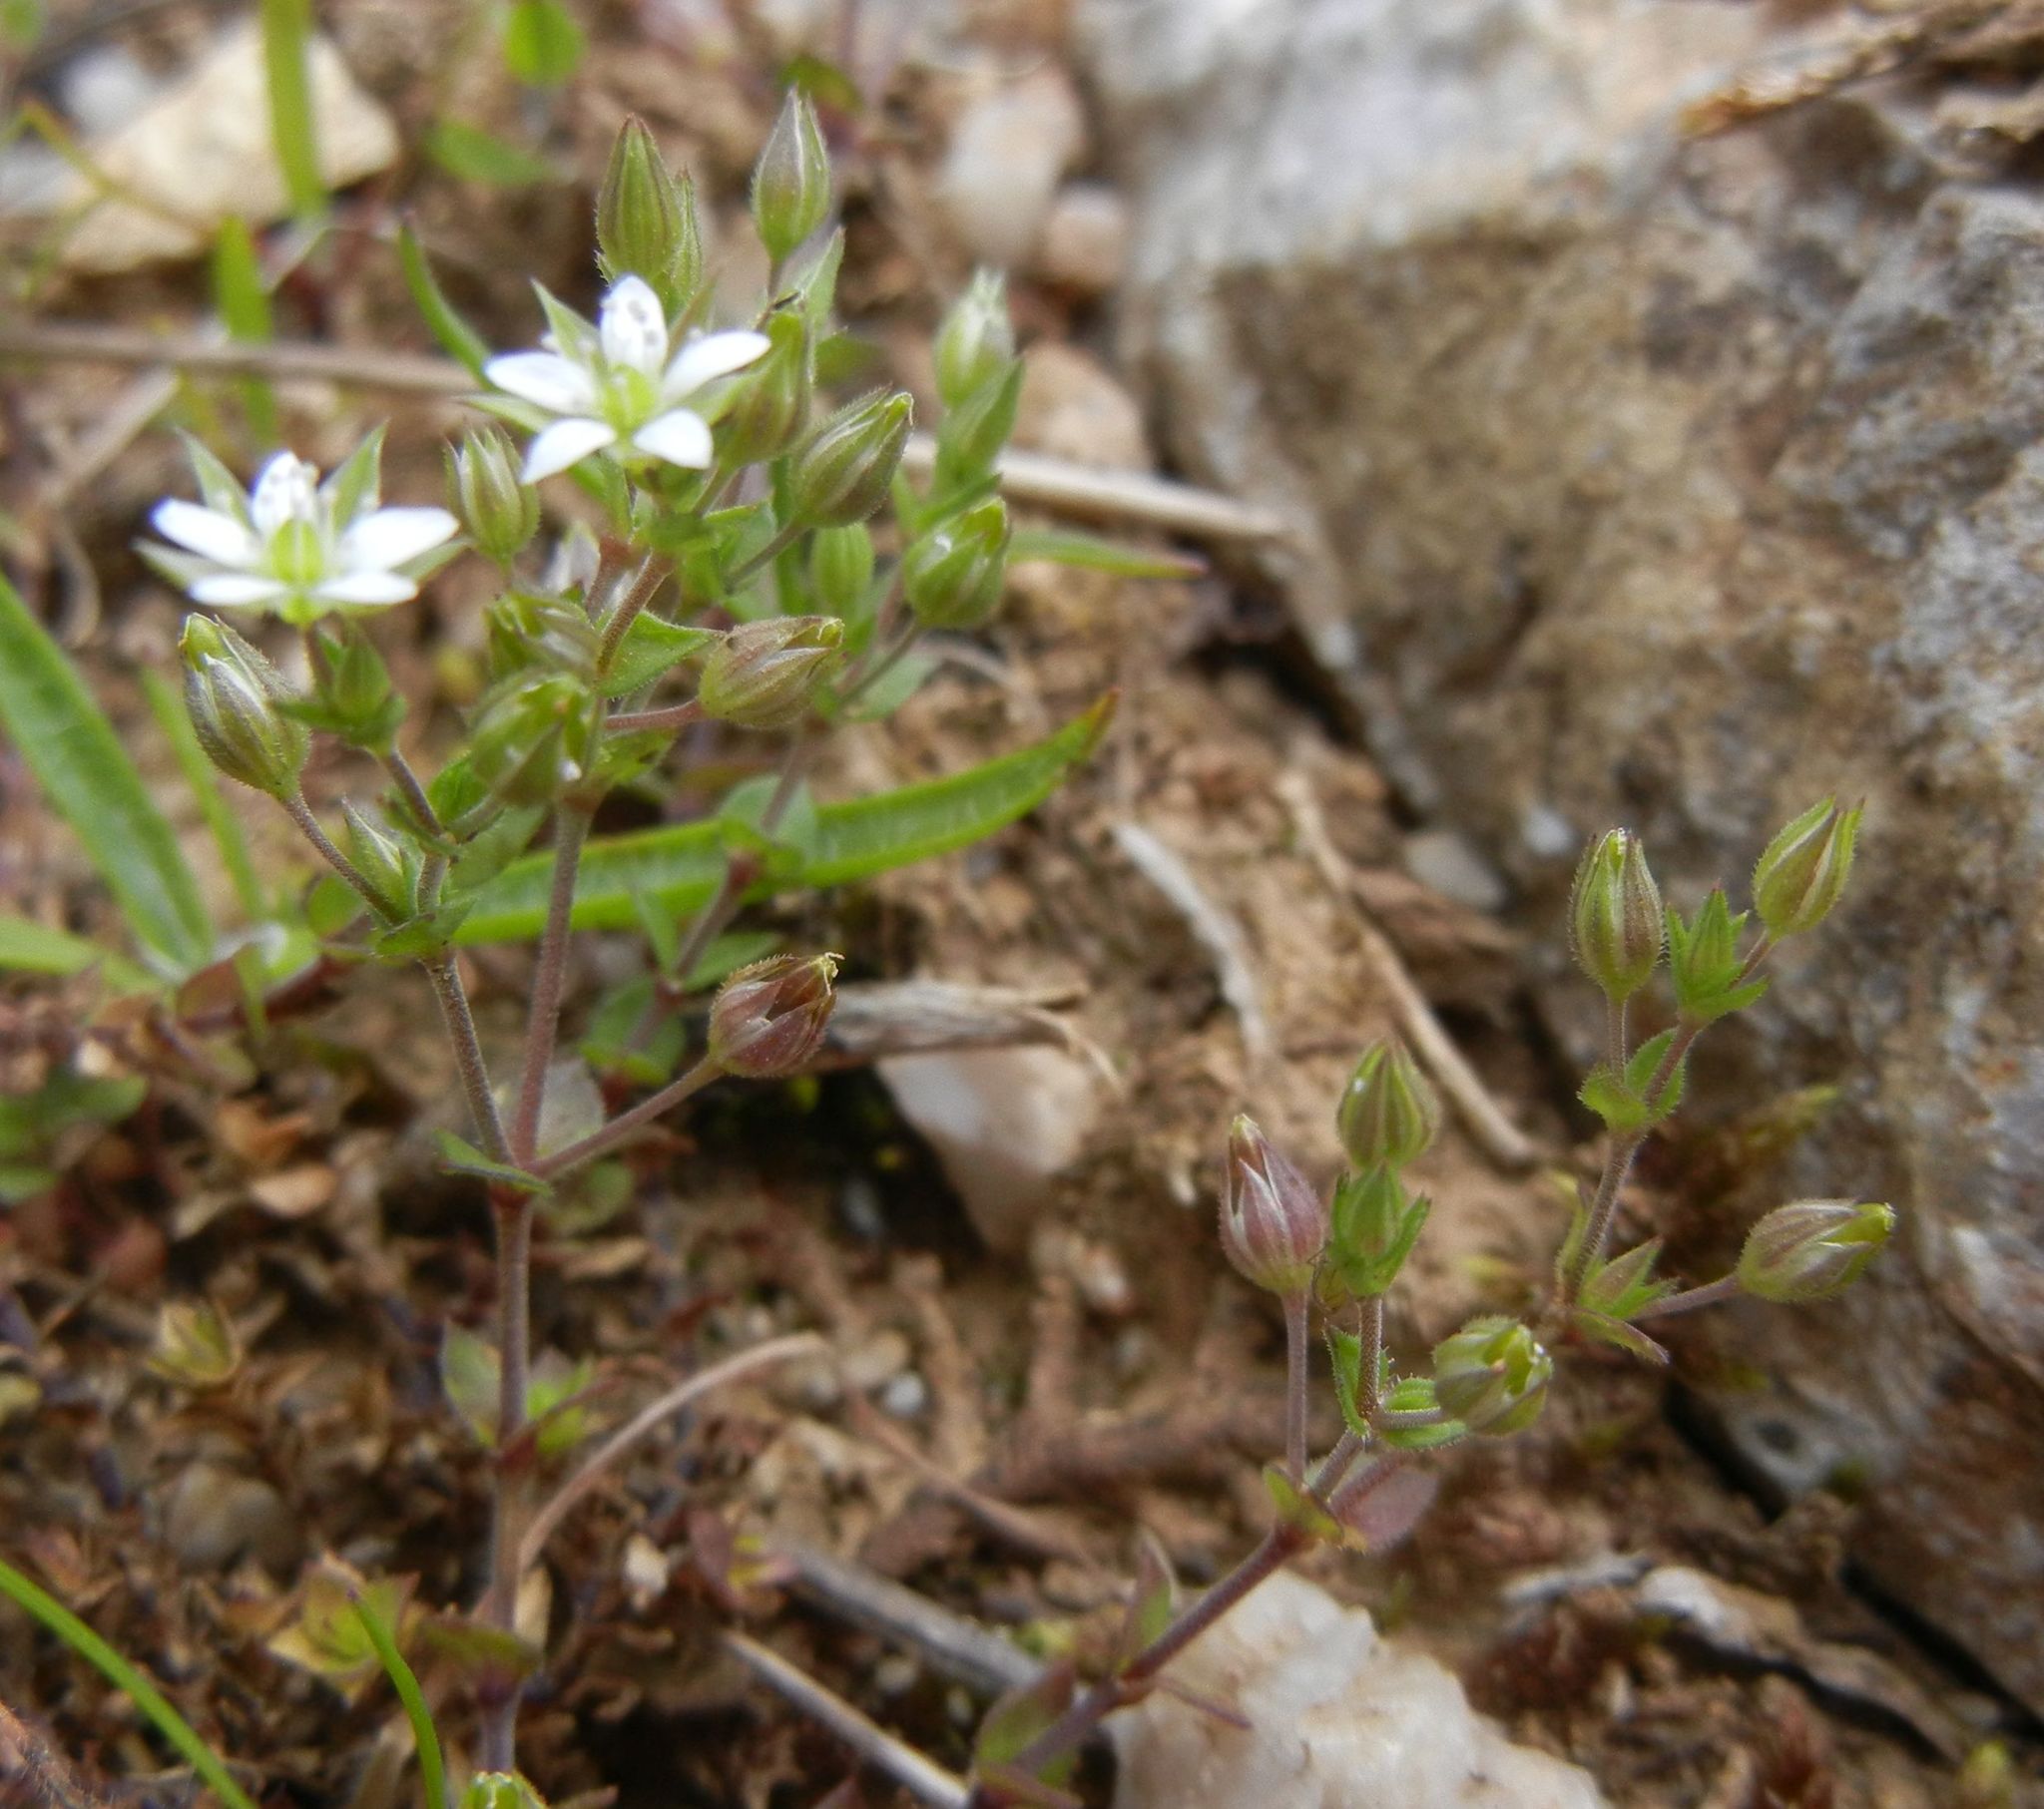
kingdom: Plantae
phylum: Tracheophyta
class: Magnoliopsida
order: Caryophyllales
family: Caryophyllaceae
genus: Arenaria
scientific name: Arenaria serpyllifolia
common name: Thyme-leaved sandwort
